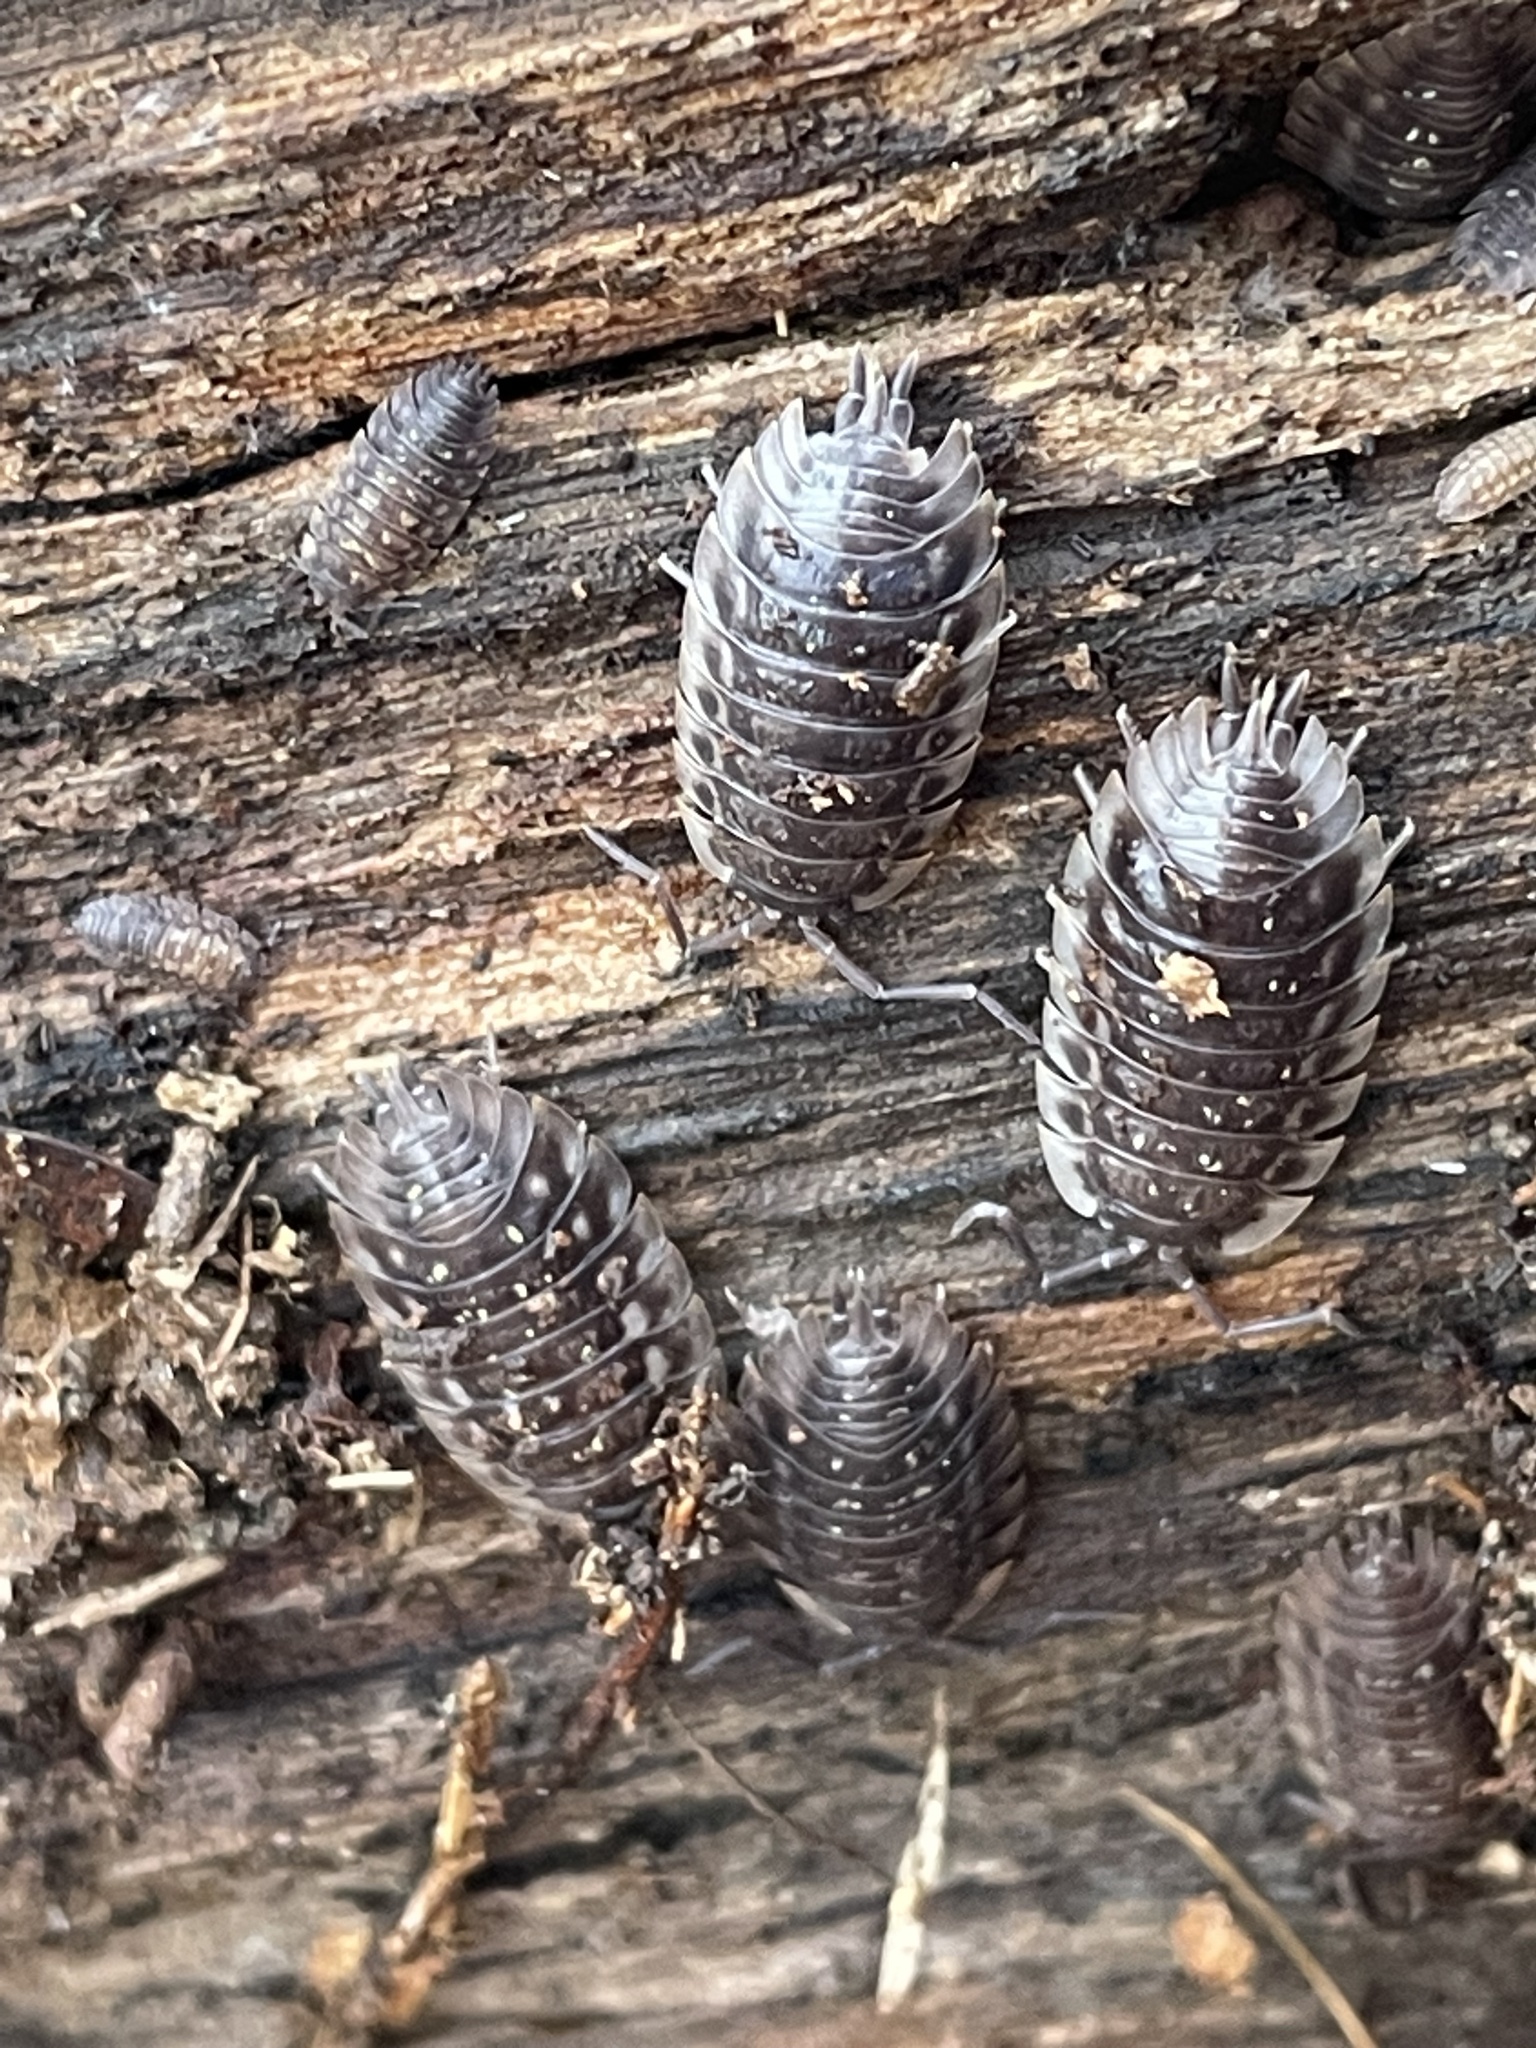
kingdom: Animalia
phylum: Arthropoda
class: Malacostraca
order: Isopoda
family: Oniscidae
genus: Oniscus
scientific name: Oniscus asellus
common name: Common shiny woodlouse
